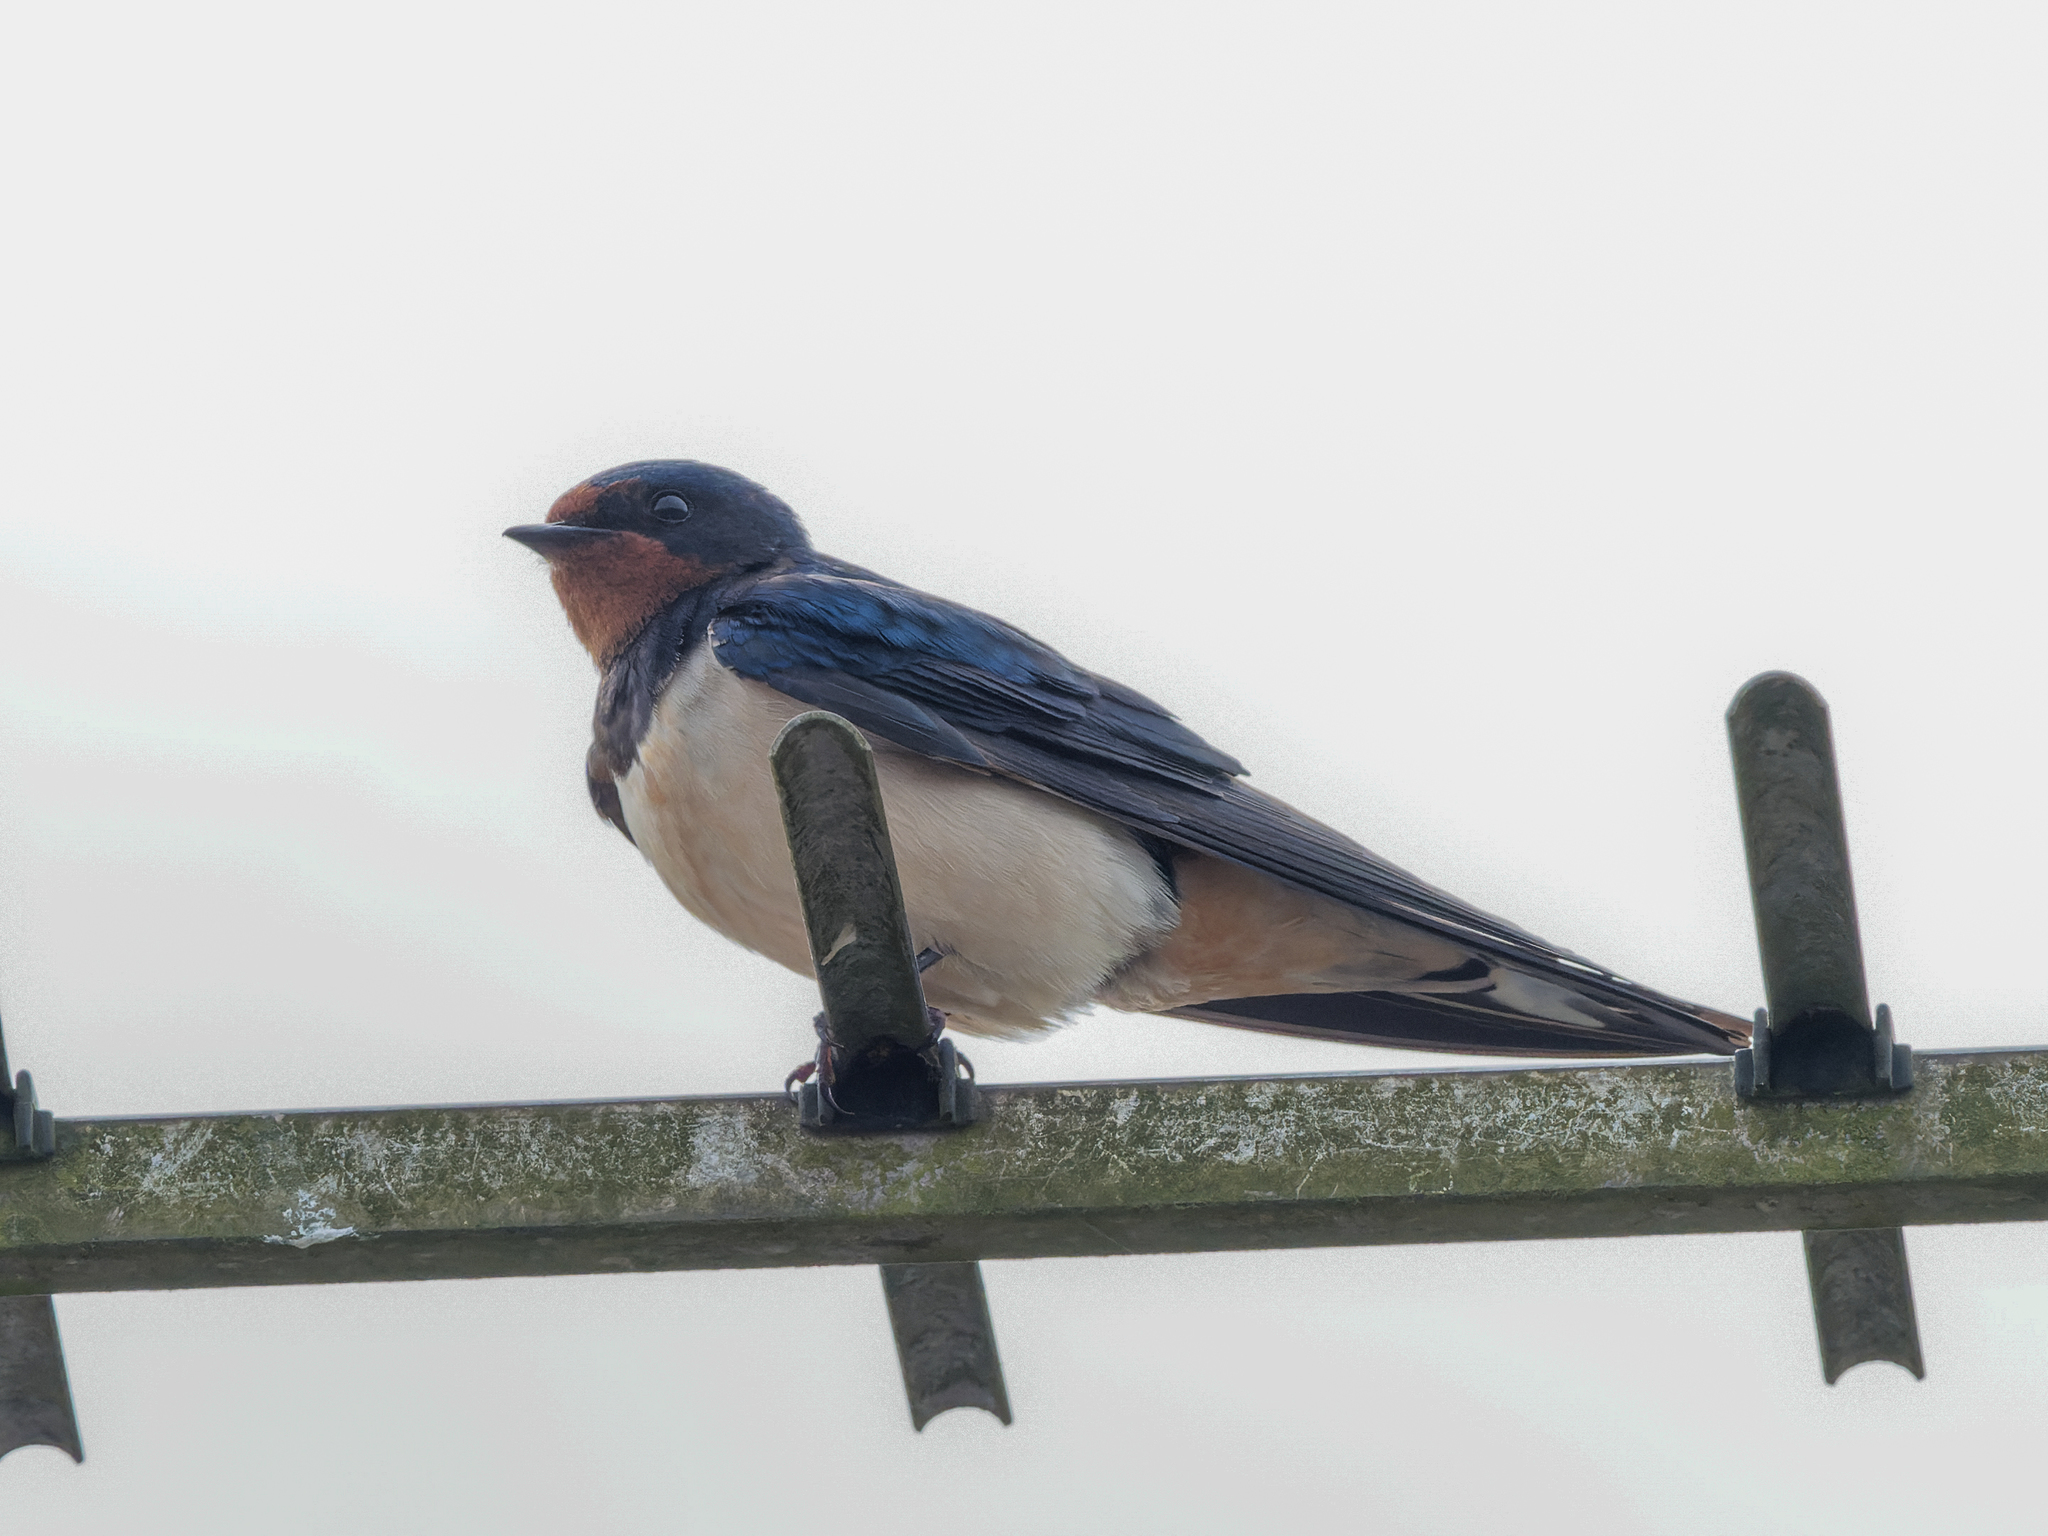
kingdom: Animalia
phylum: Chordata
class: Aves
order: Passeriformes
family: Hirundinidae
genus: Hirundo
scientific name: Hirundo rustica
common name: Barn swallow
